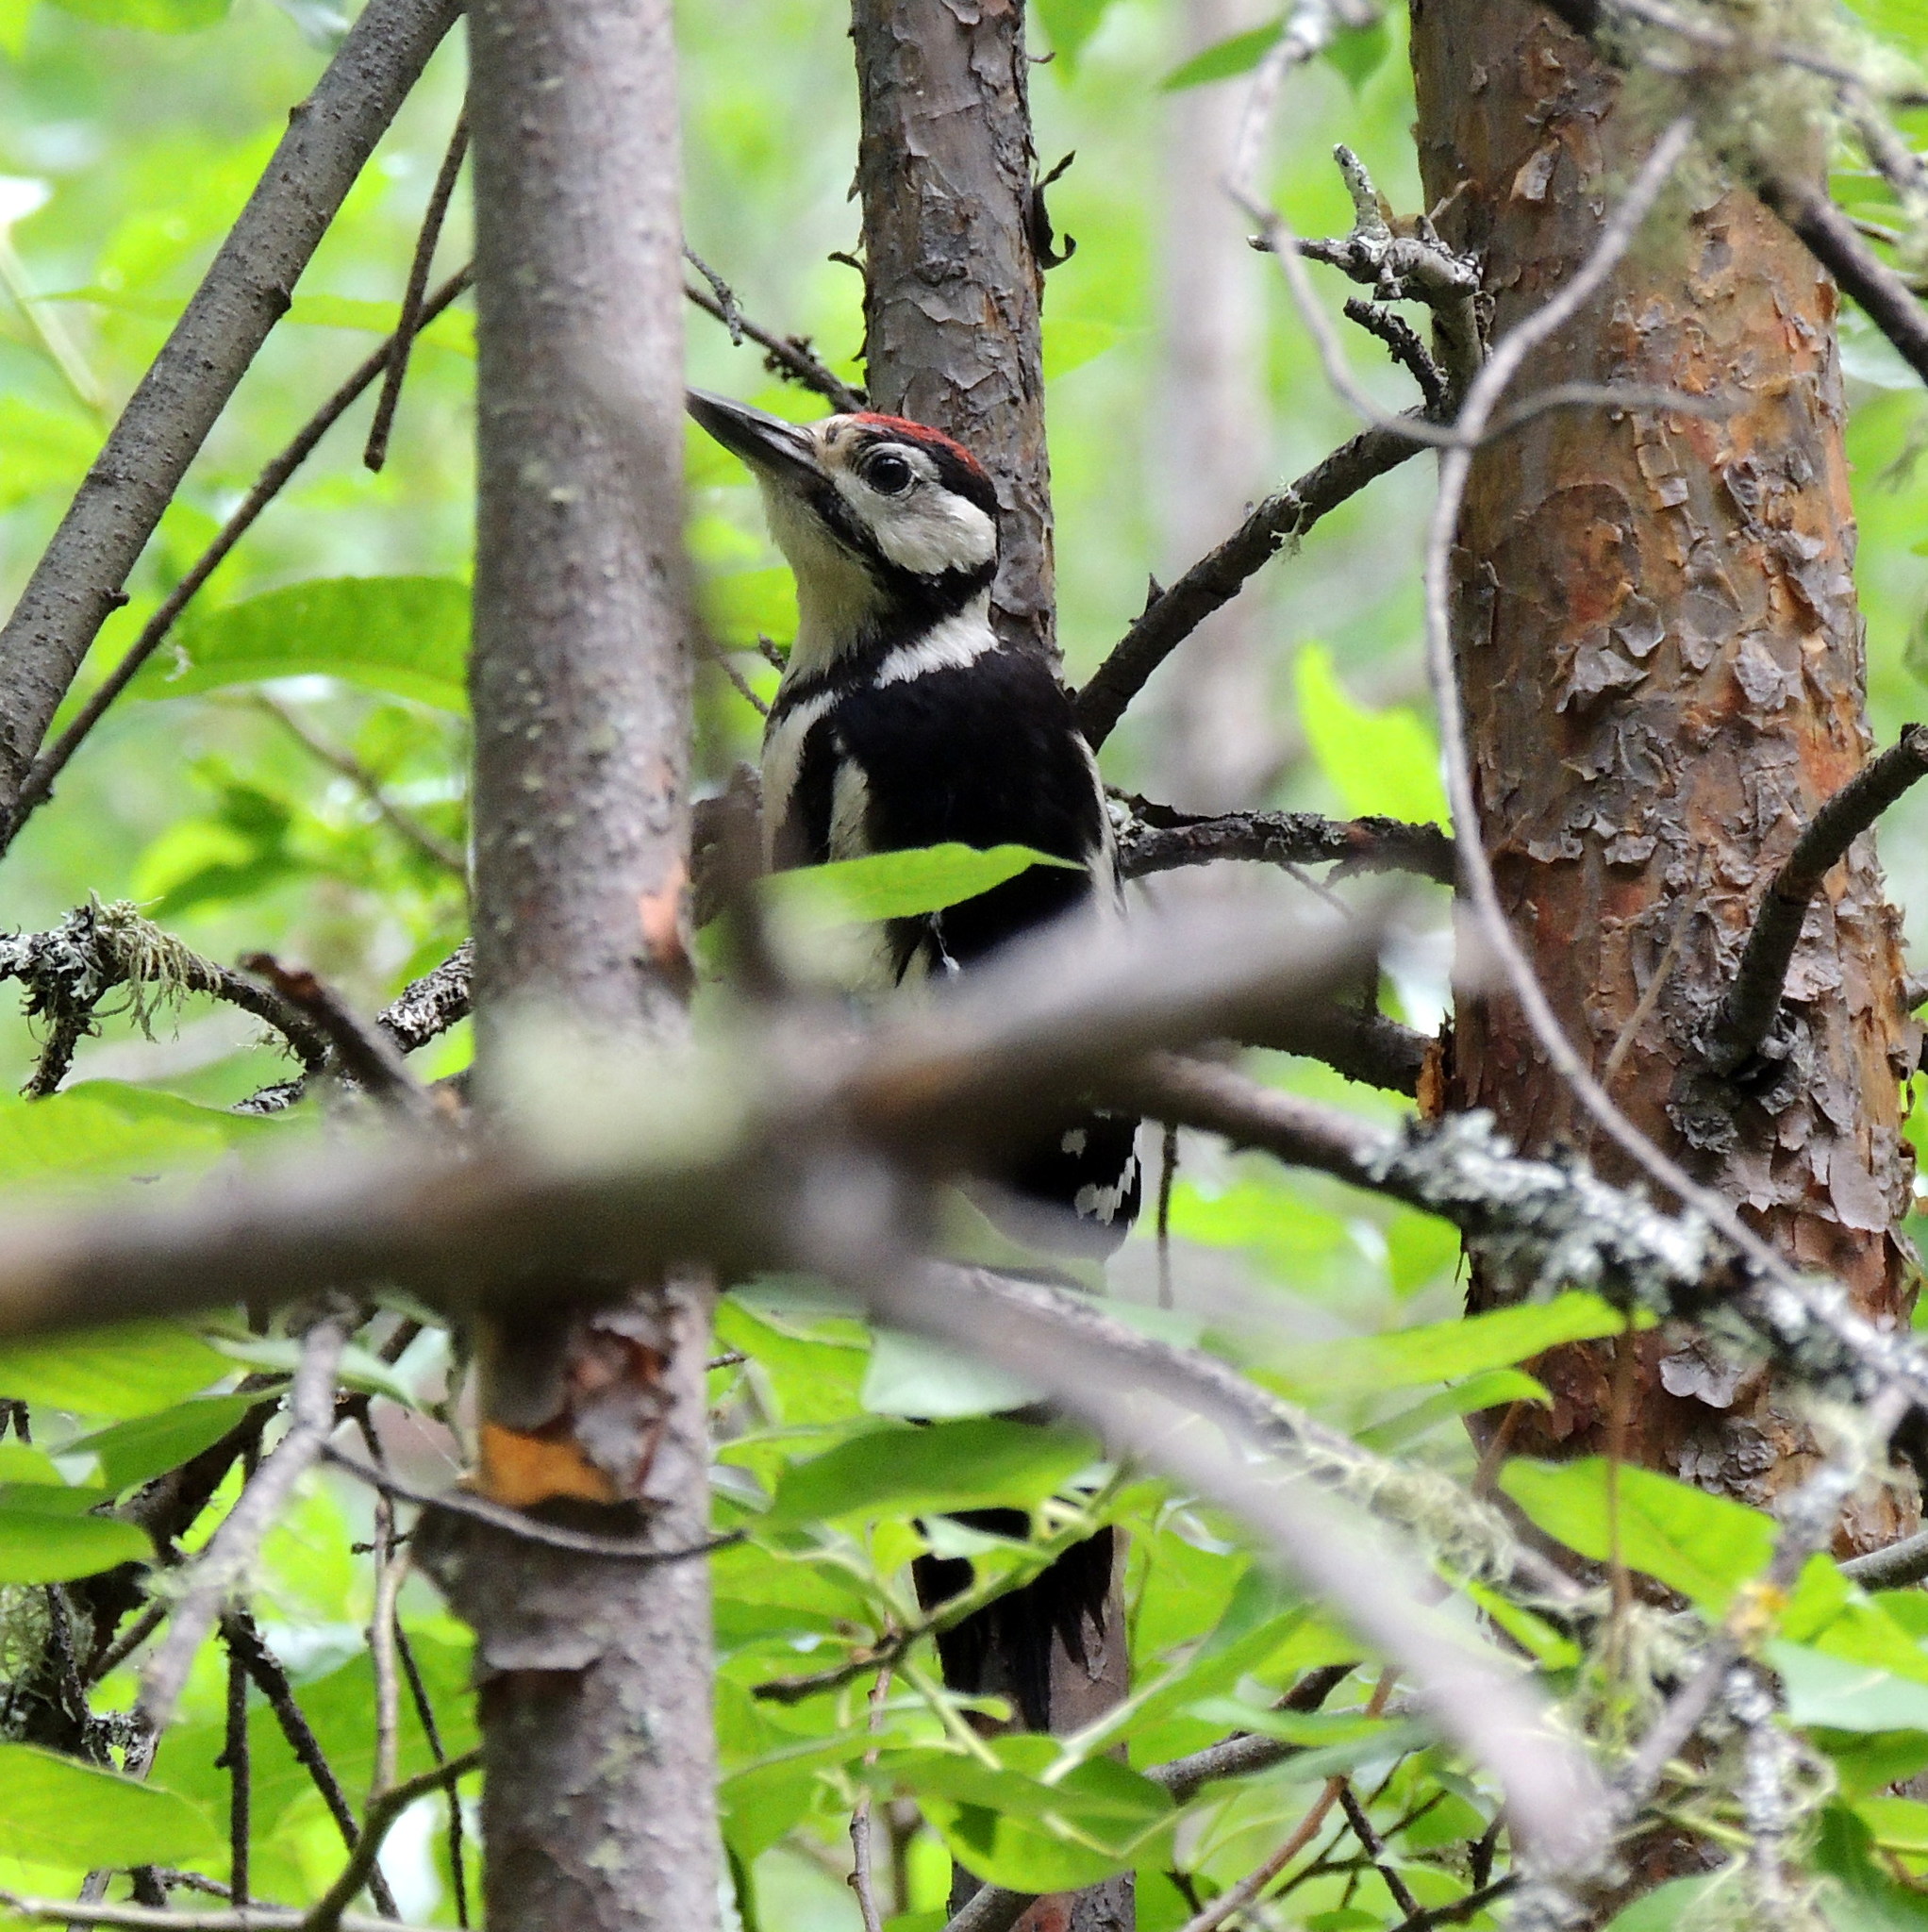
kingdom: Animalia
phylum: Chordata
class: Aves
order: Piciformes
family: Picidae
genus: Dendrocopos
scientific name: Dendrocopos major
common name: Great spotted woodpecker
